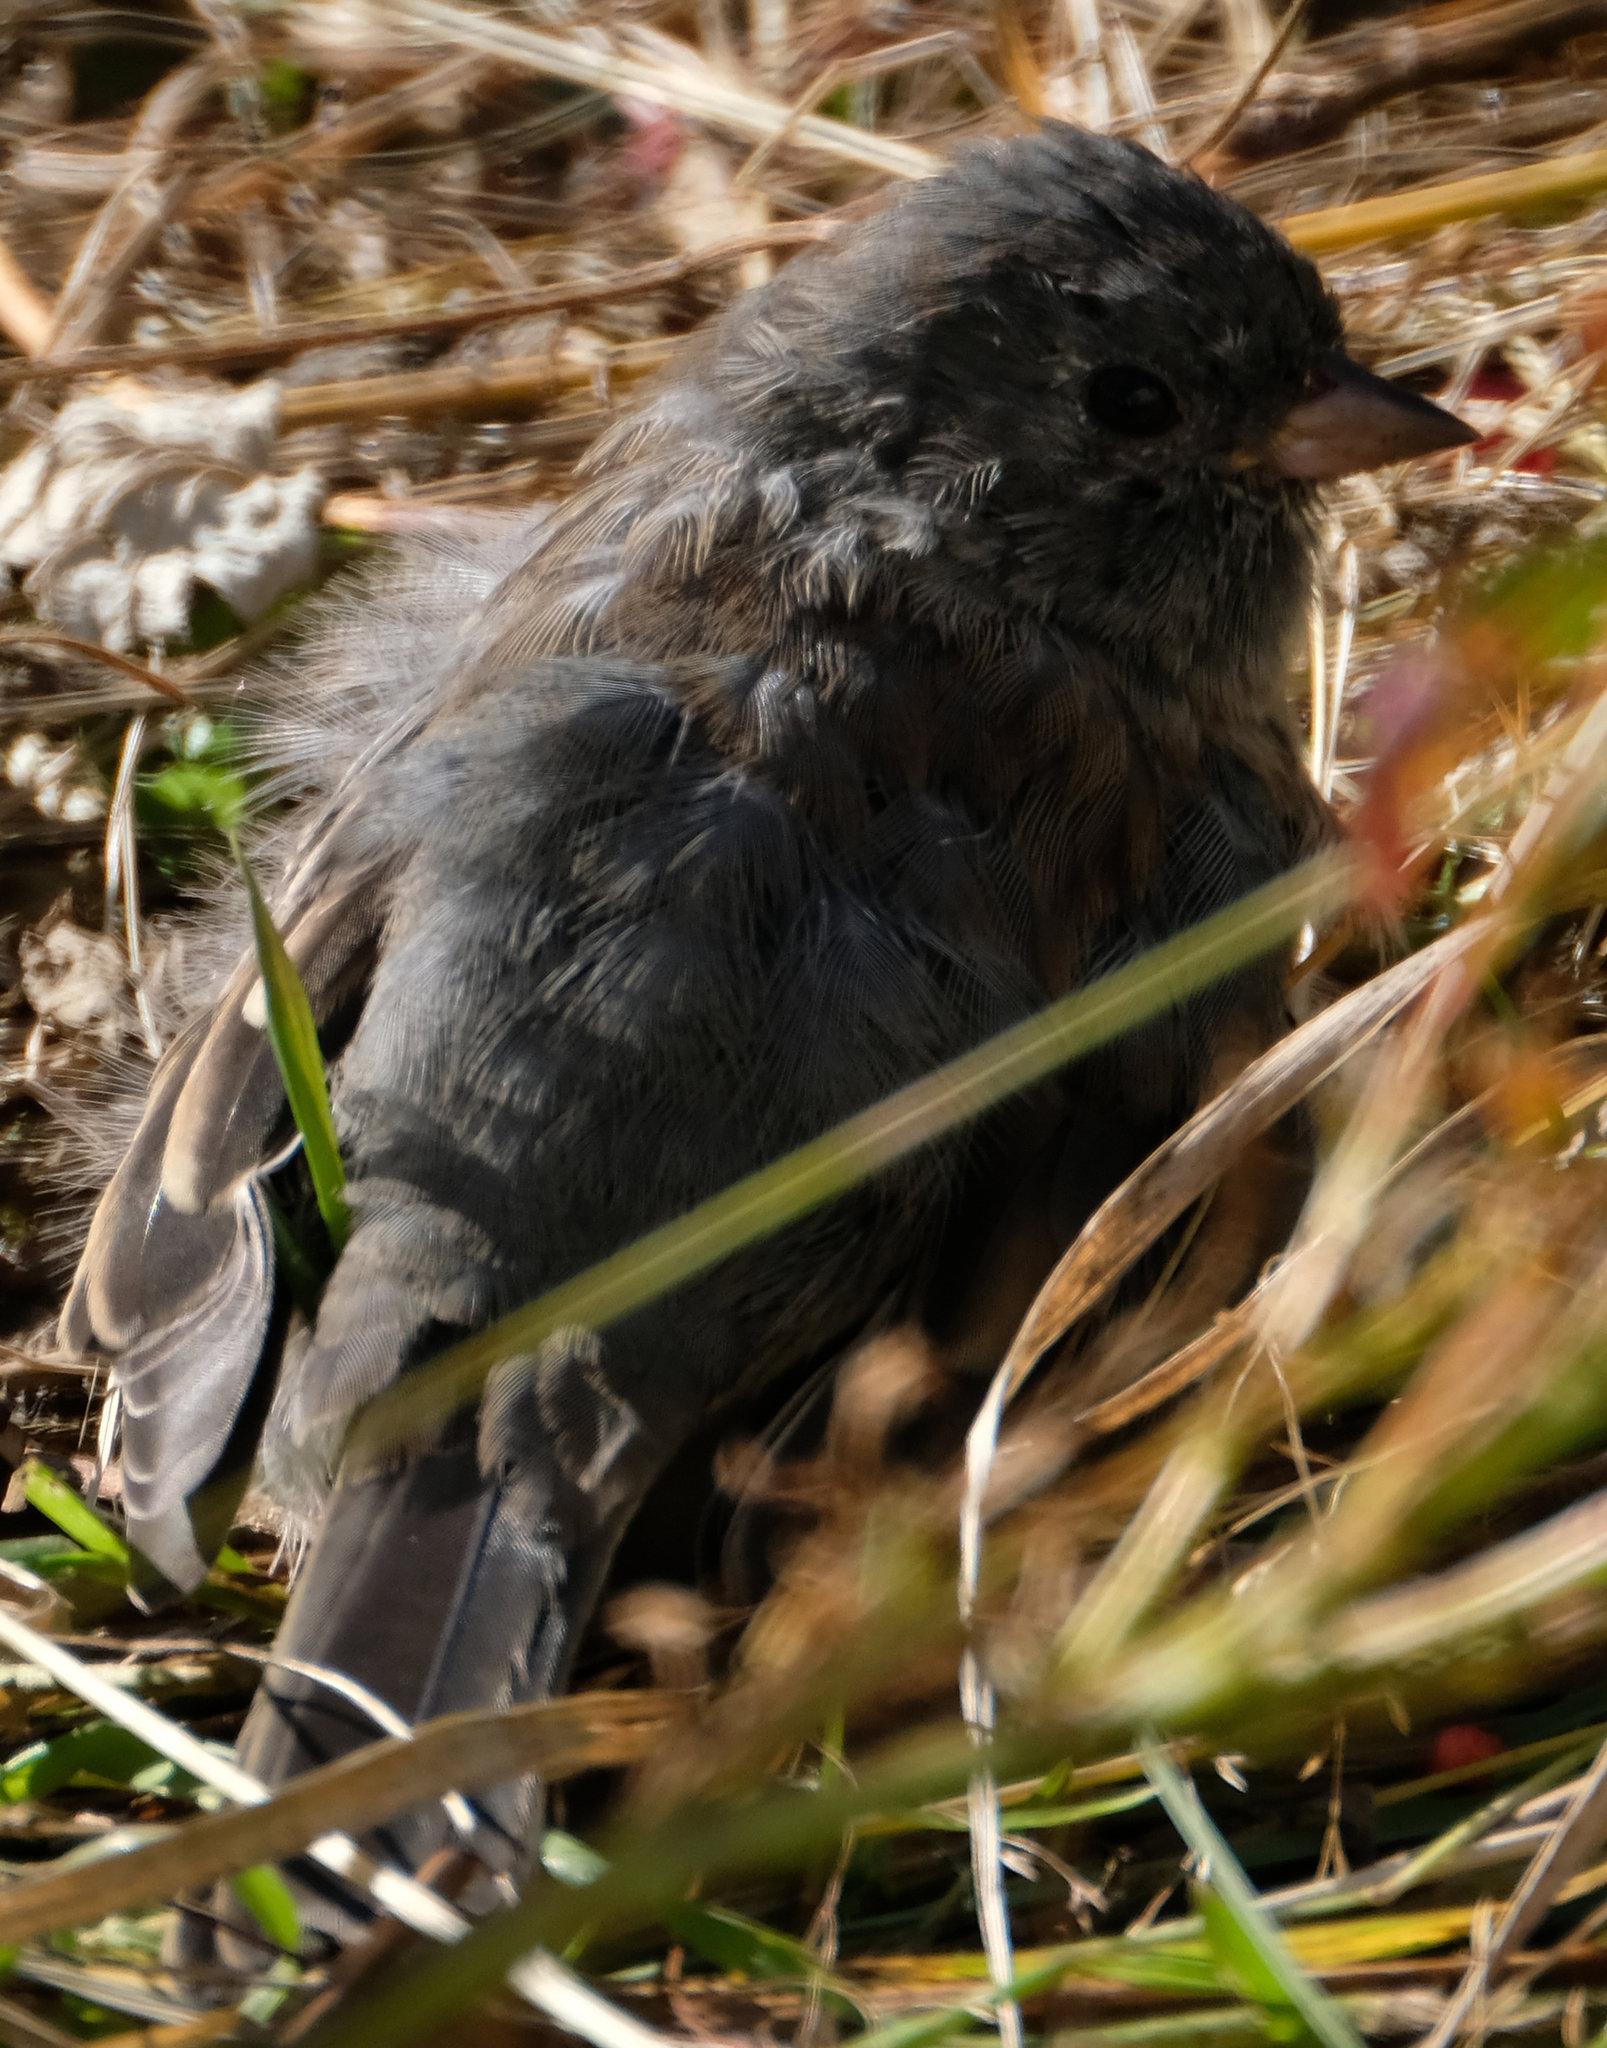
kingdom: Animalia
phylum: Chordata
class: Aves
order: Passeriformes
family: Passerellidae
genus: Junco
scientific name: Junco hyemalis
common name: Dark-eyed junco
